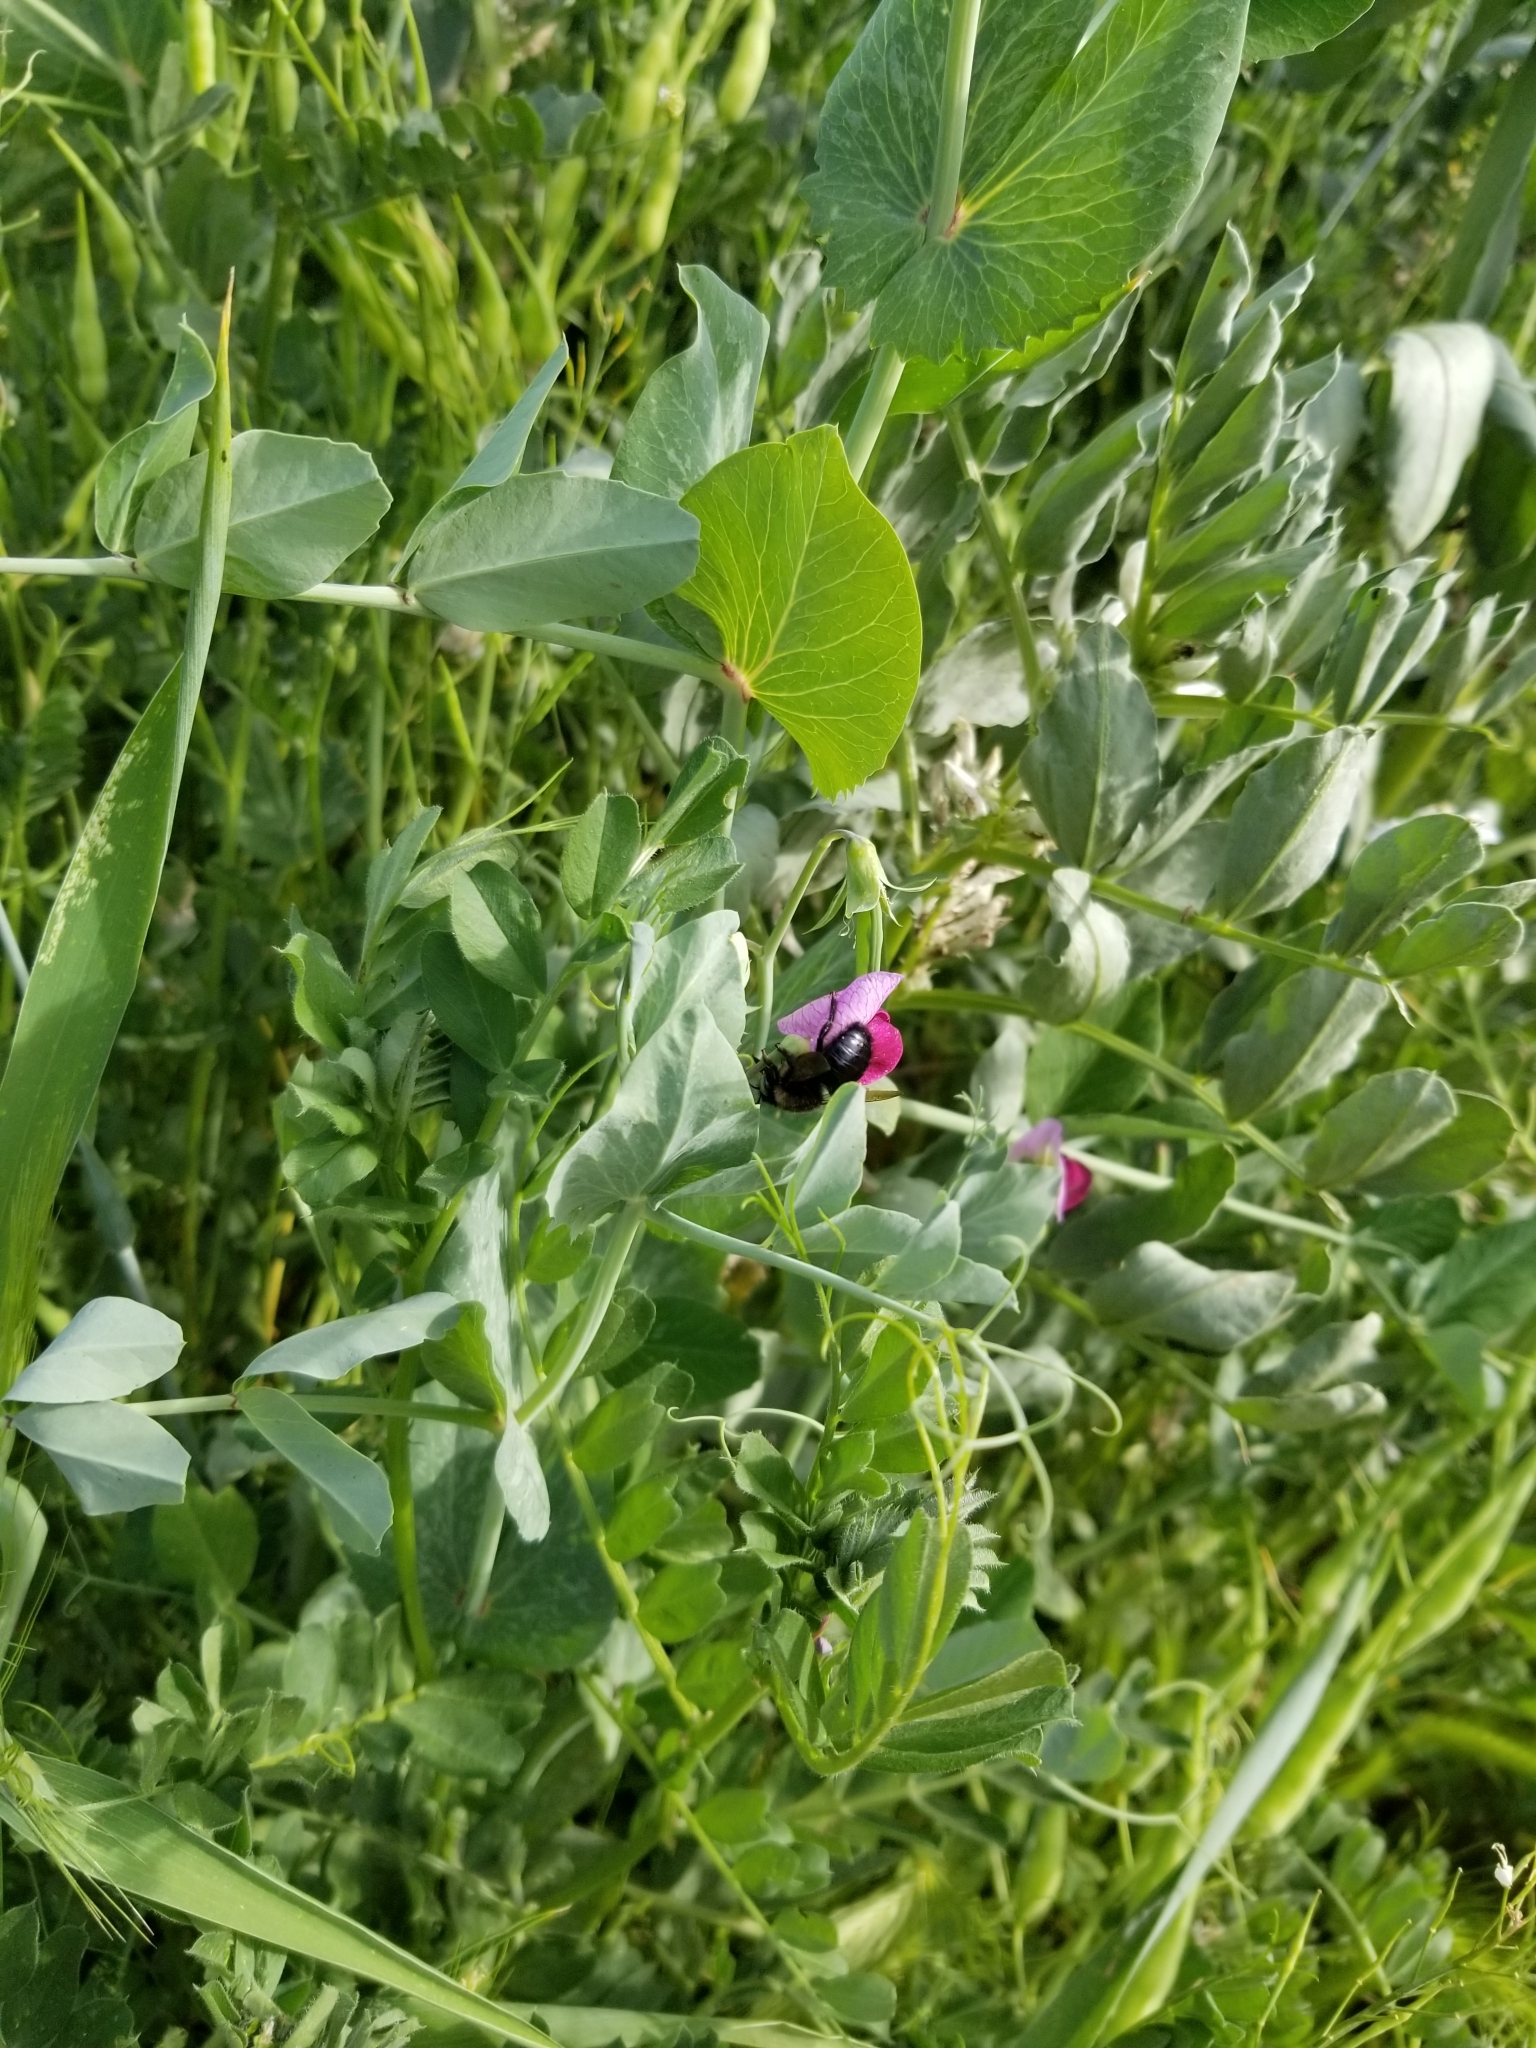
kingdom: Animalia
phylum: Arthropoda
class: Insecta
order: Hymenoptera
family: Apidae
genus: Xylocopa
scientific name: Xylocopa tabaniformis
